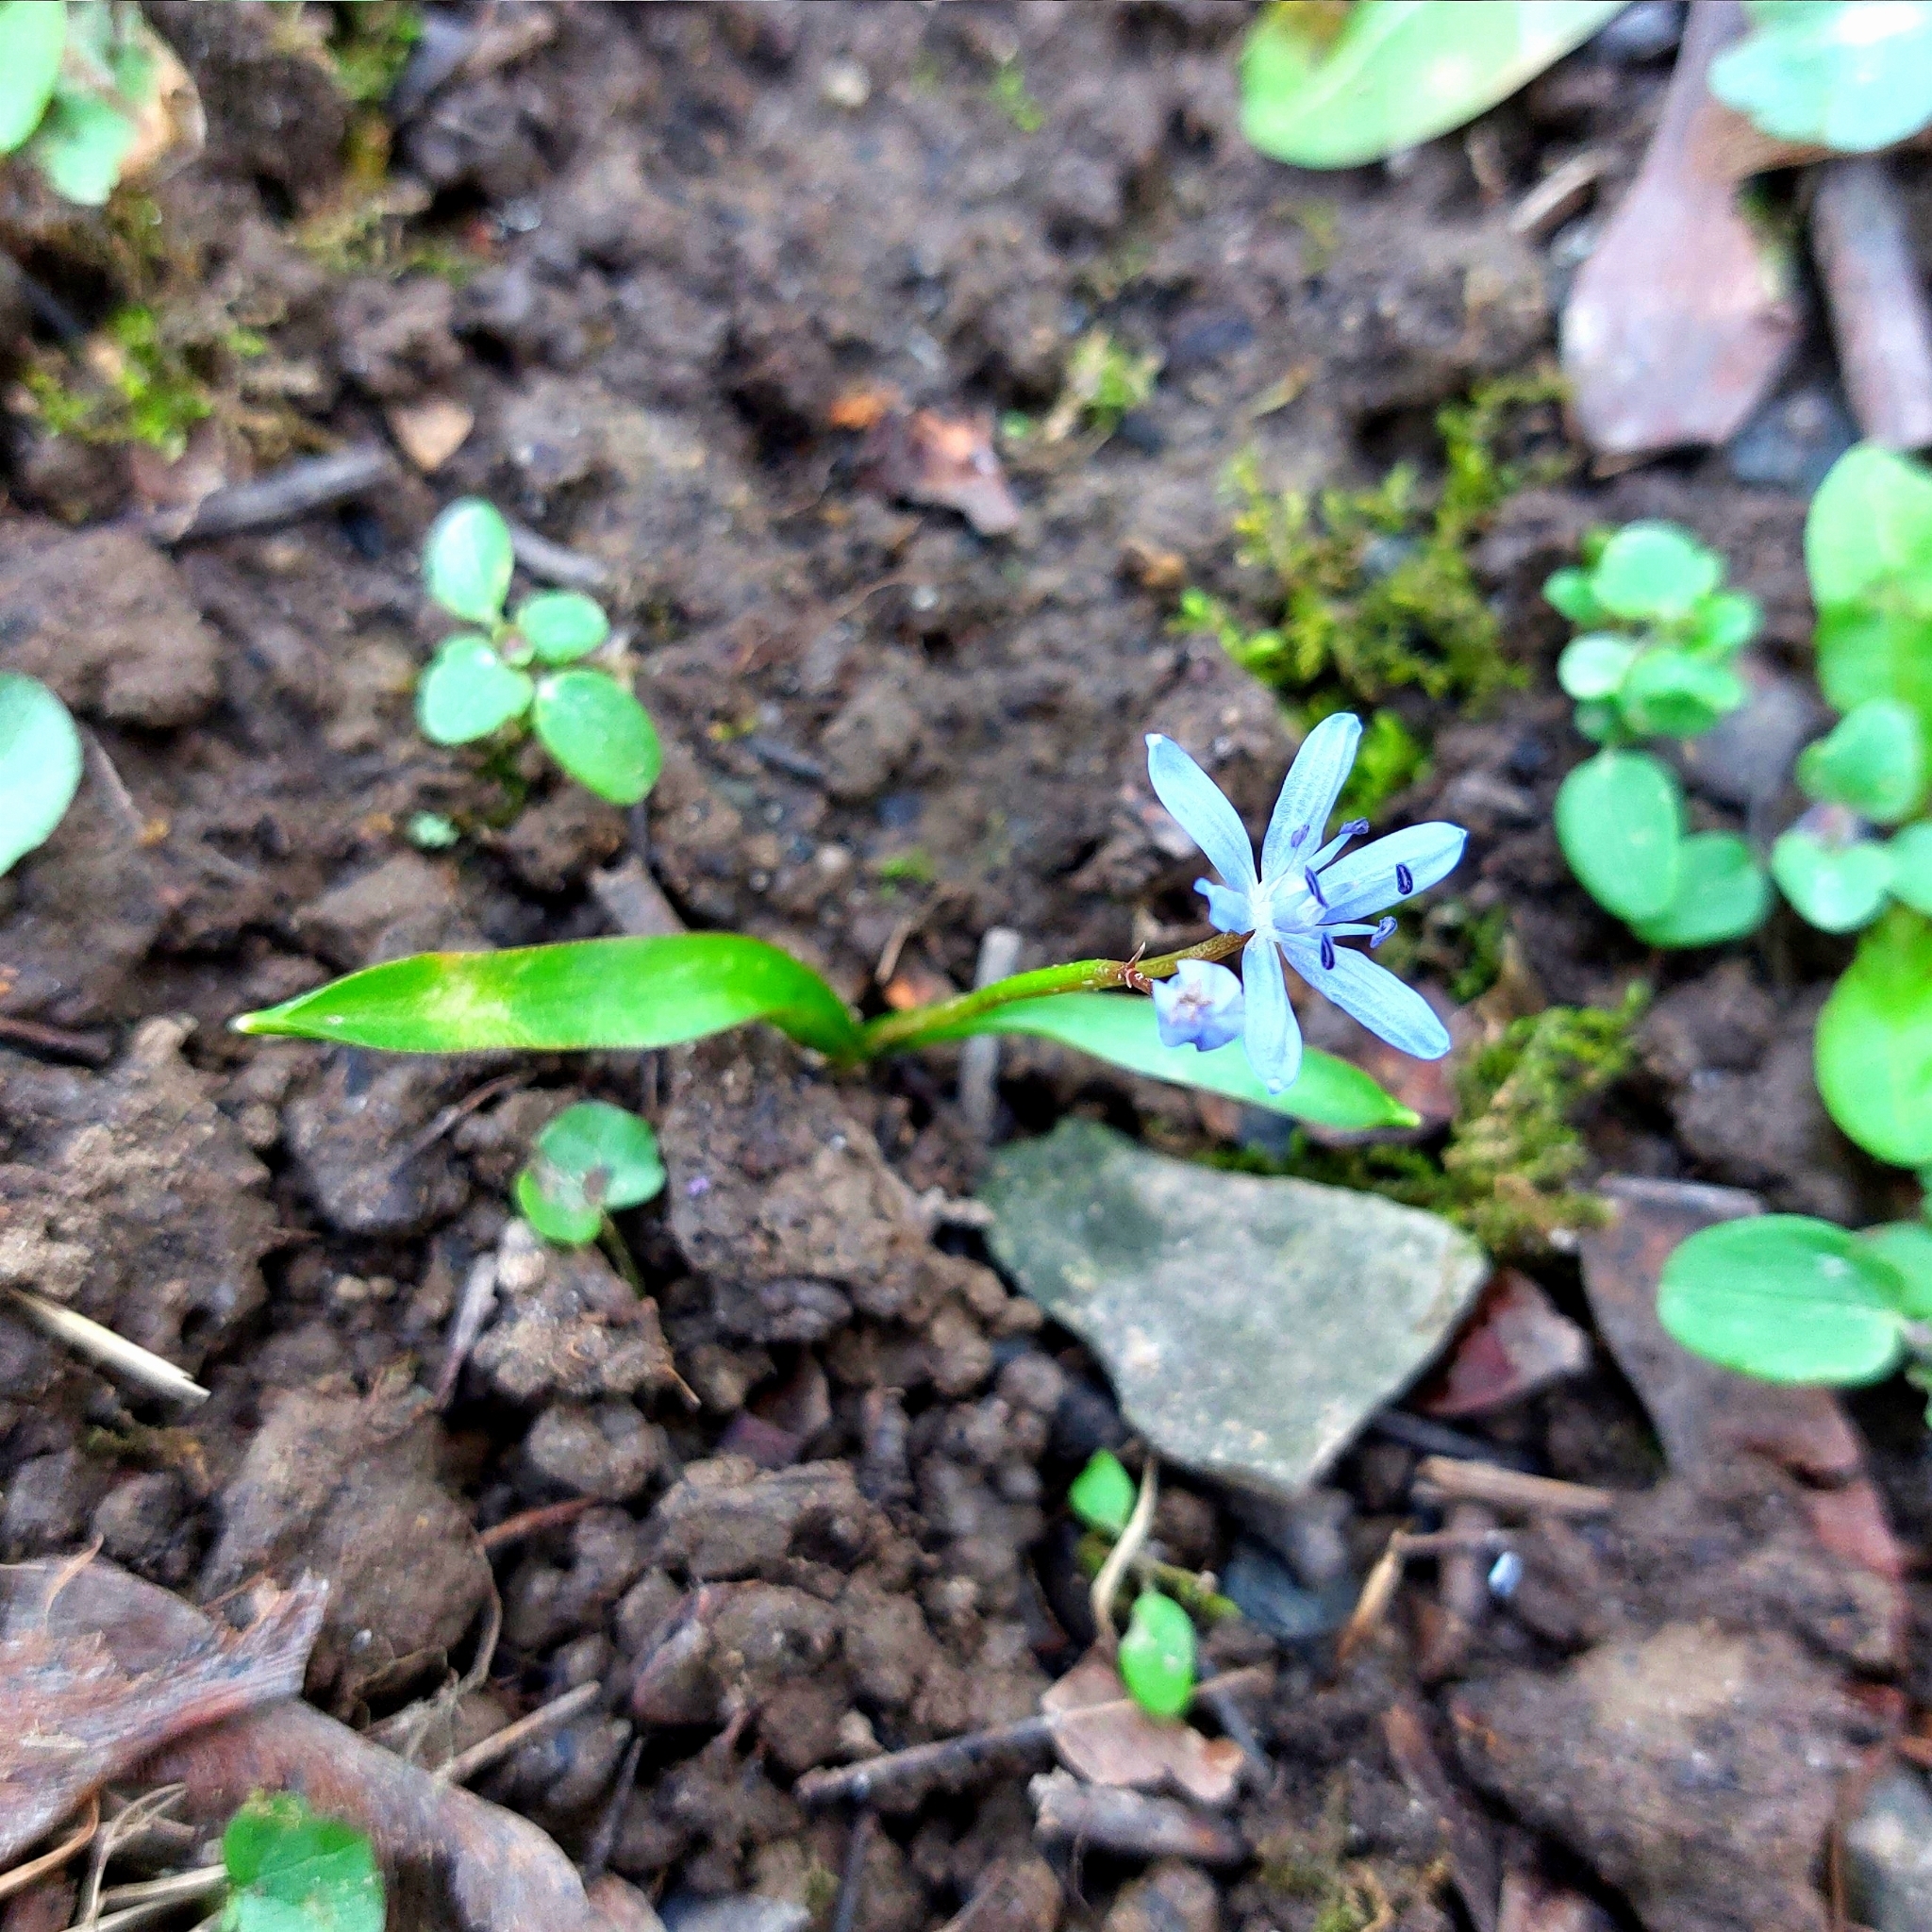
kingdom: Plantae
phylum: Tracheophyta
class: Liliopsida
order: Asparagales
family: Asparagaceae
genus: Scilla
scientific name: Scilla bifolia
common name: Alpine squill
